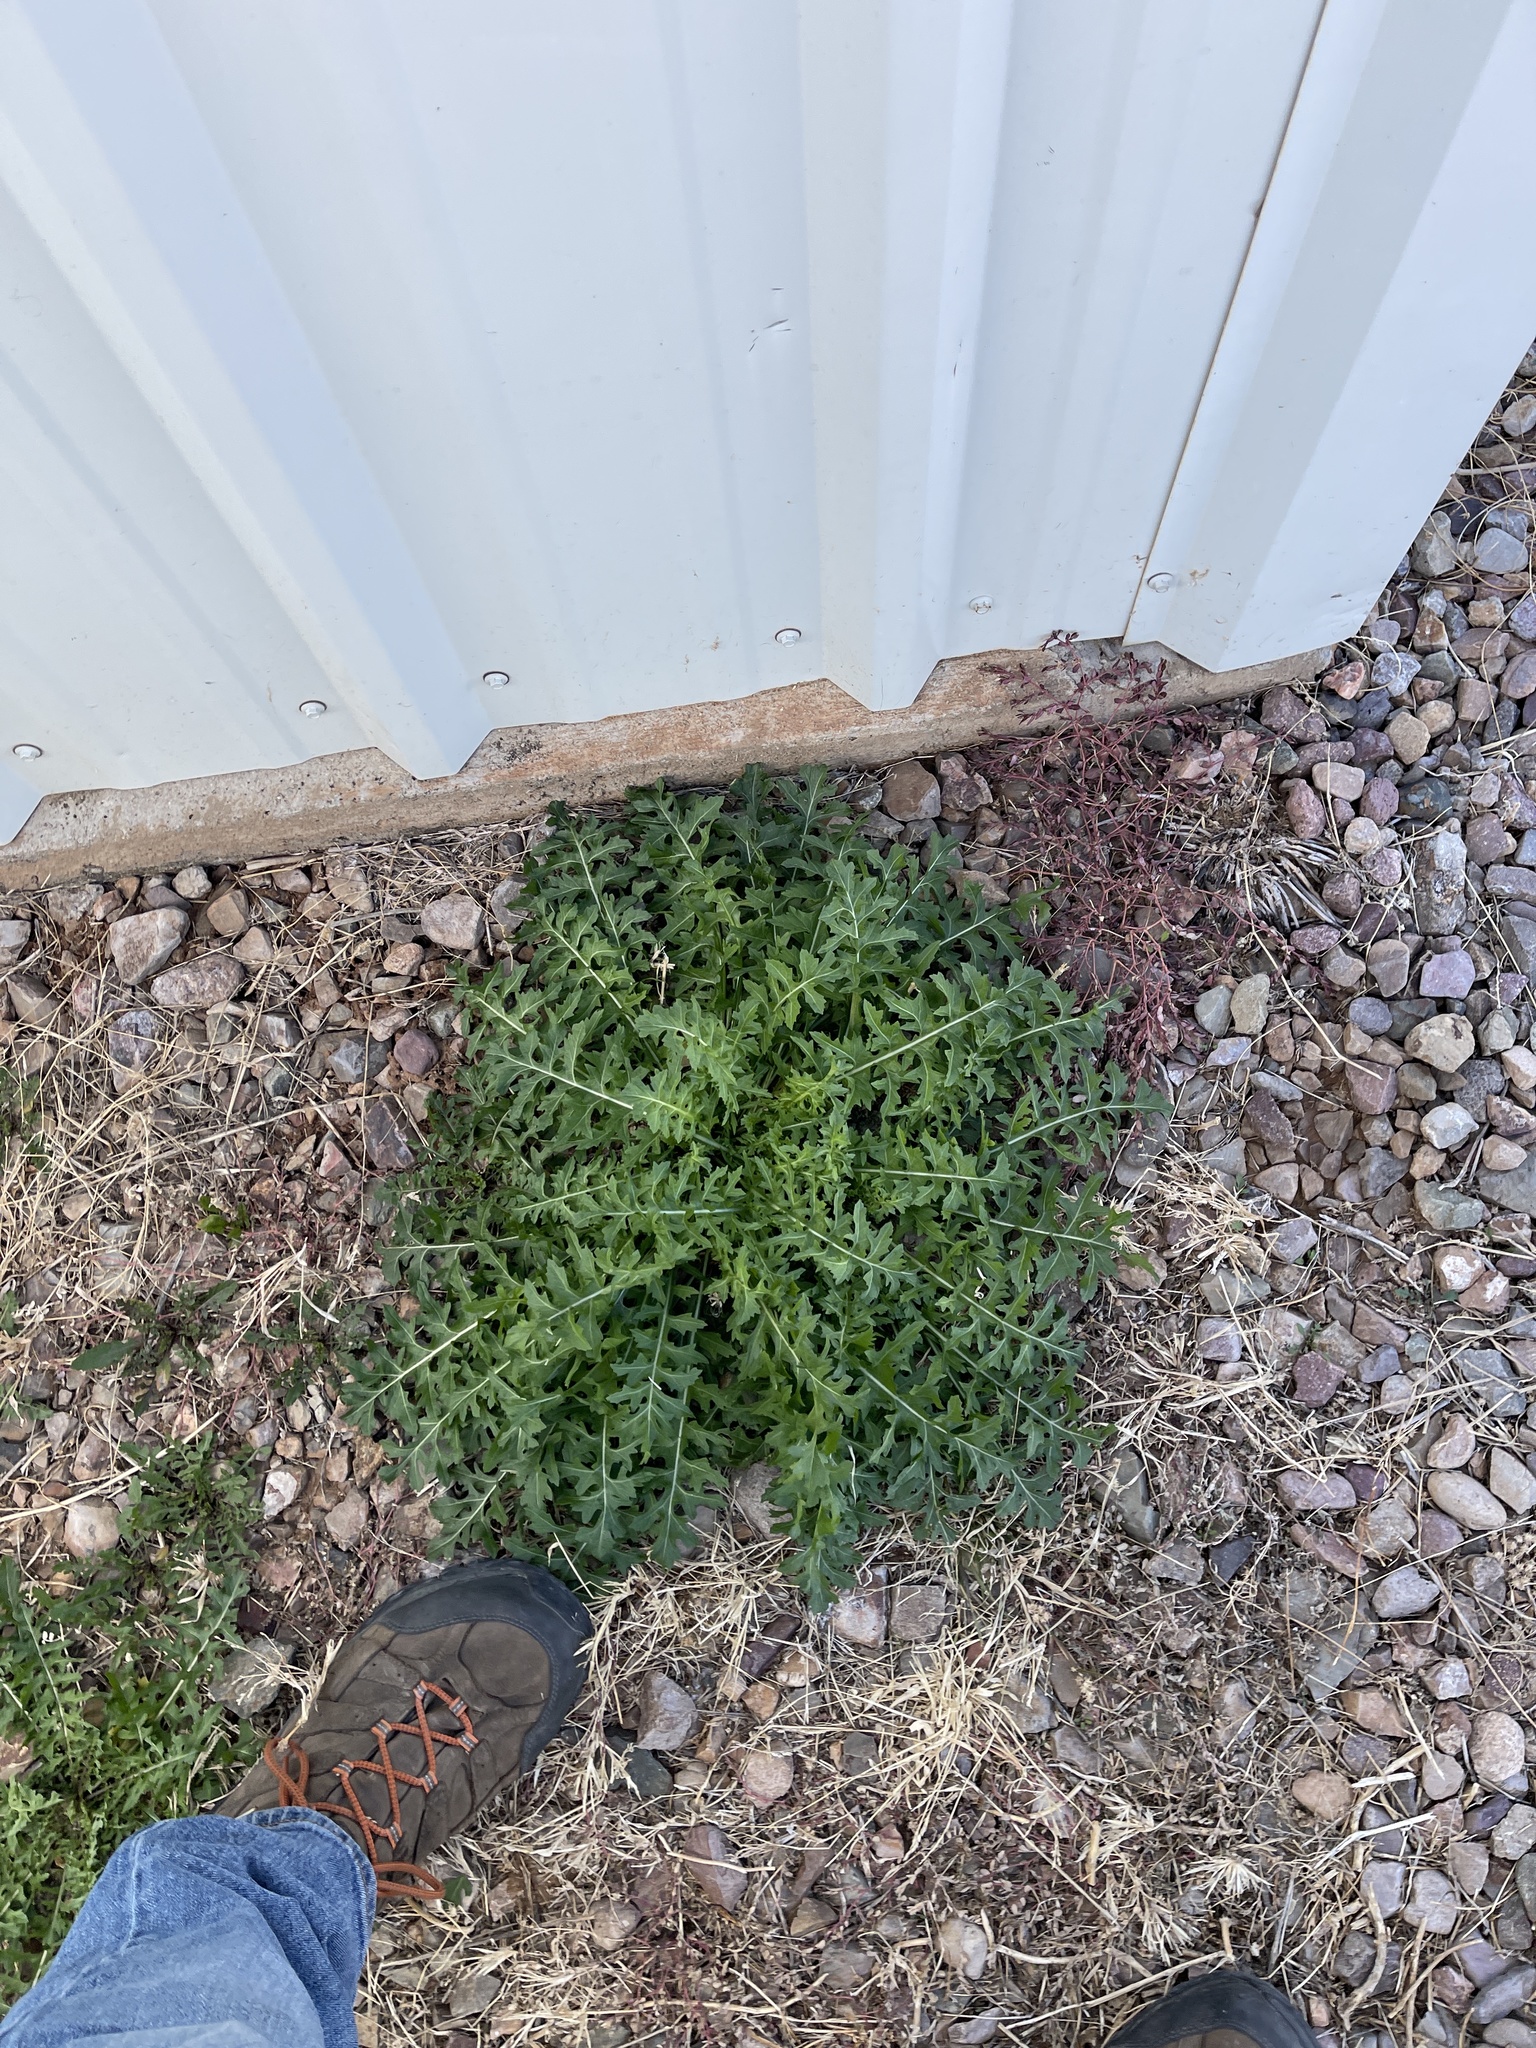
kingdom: Plantae
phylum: Tracheophyta
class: Magnoliopsida
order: Brassicales
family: Brassicaceae
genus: Sisymbrium
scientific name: Sisymbrium irio
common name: London rocket
